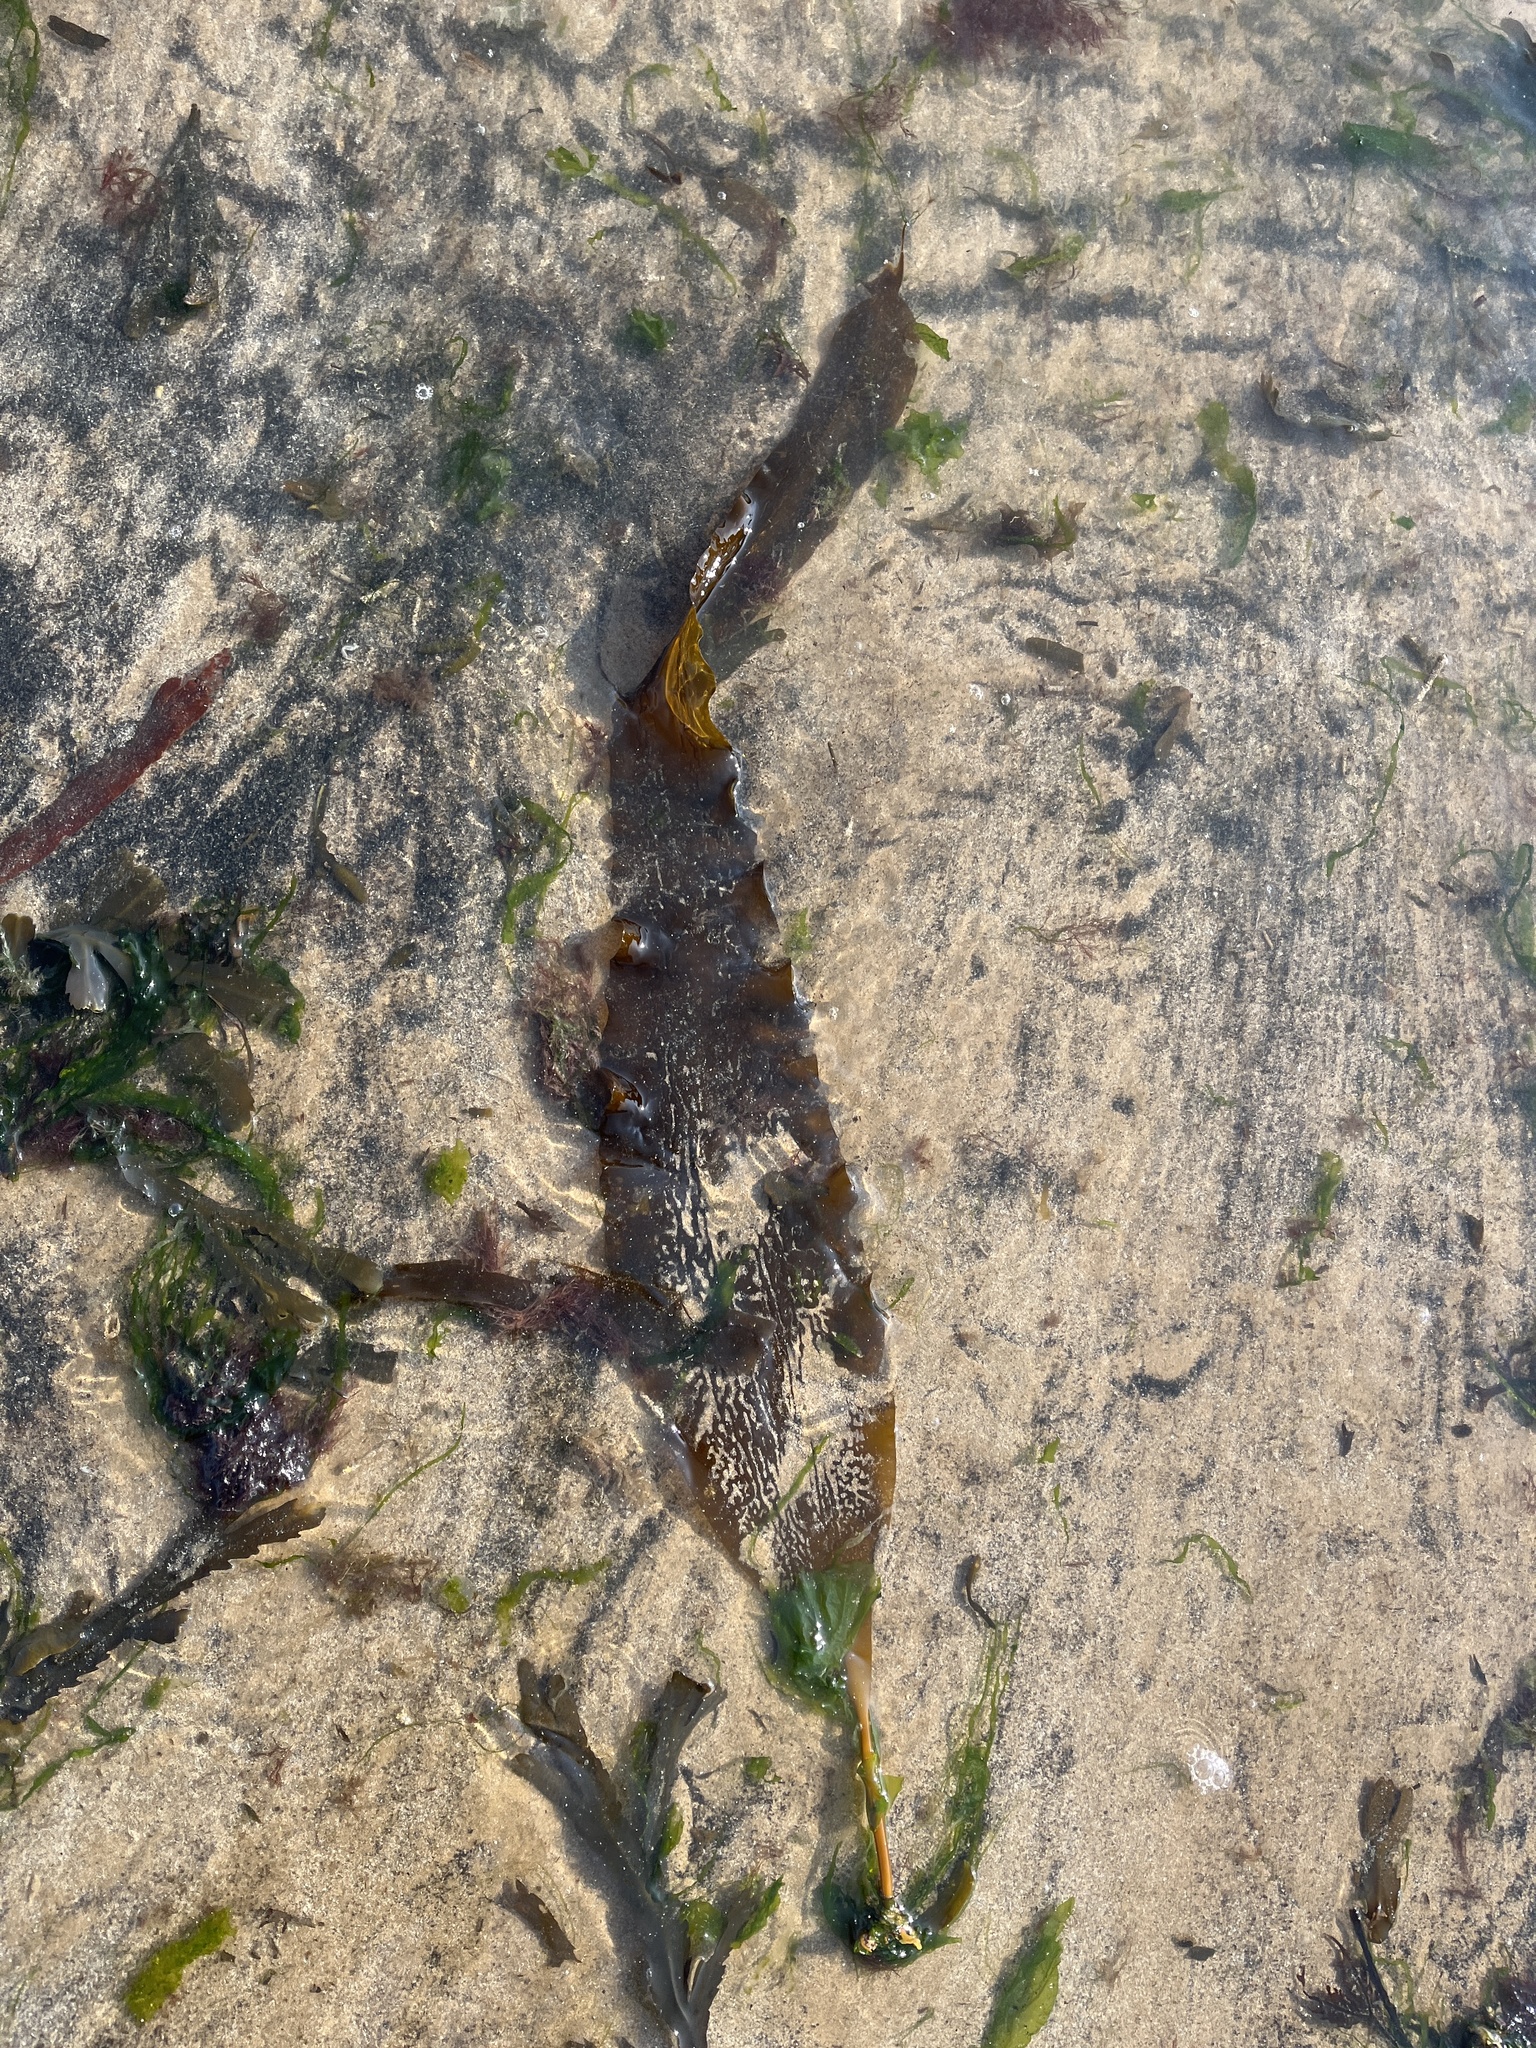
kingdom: Chromista
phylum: Ochrophyta
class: Phaeophyceae
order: Laminariales
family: Laminariaceae
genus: Saccharina
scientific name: Saccharina latissima
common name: Poor man's weather glass
